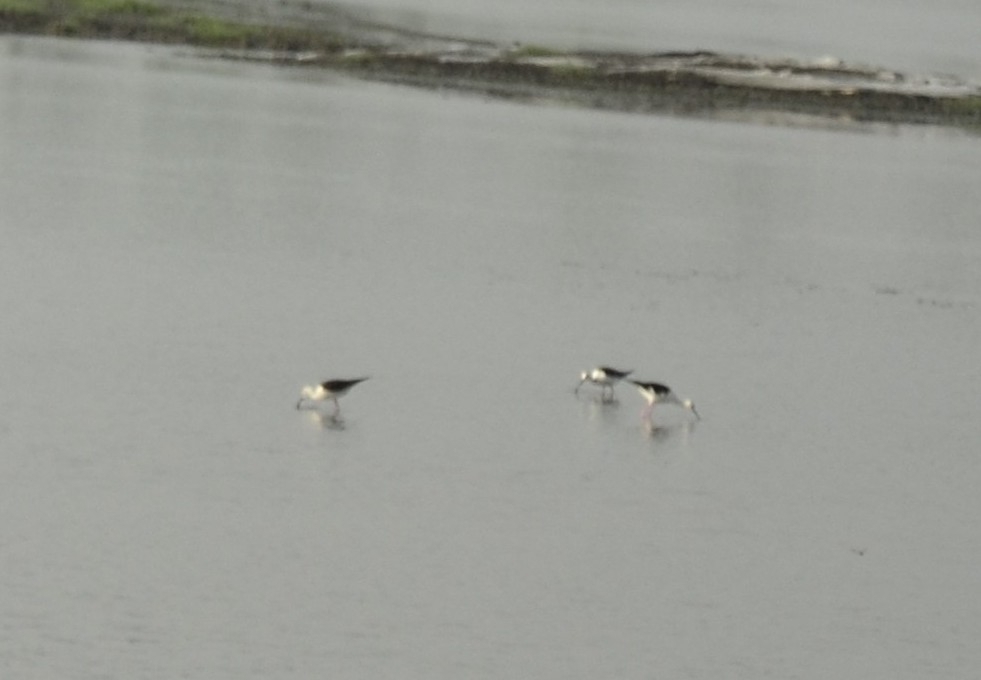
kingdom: Animalia
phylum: Chordata
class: Aves
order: Charadriiformes
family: Recurvirostridae
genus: Himantopus
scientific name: Himantopus himantopus
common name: Black-winged stilt
